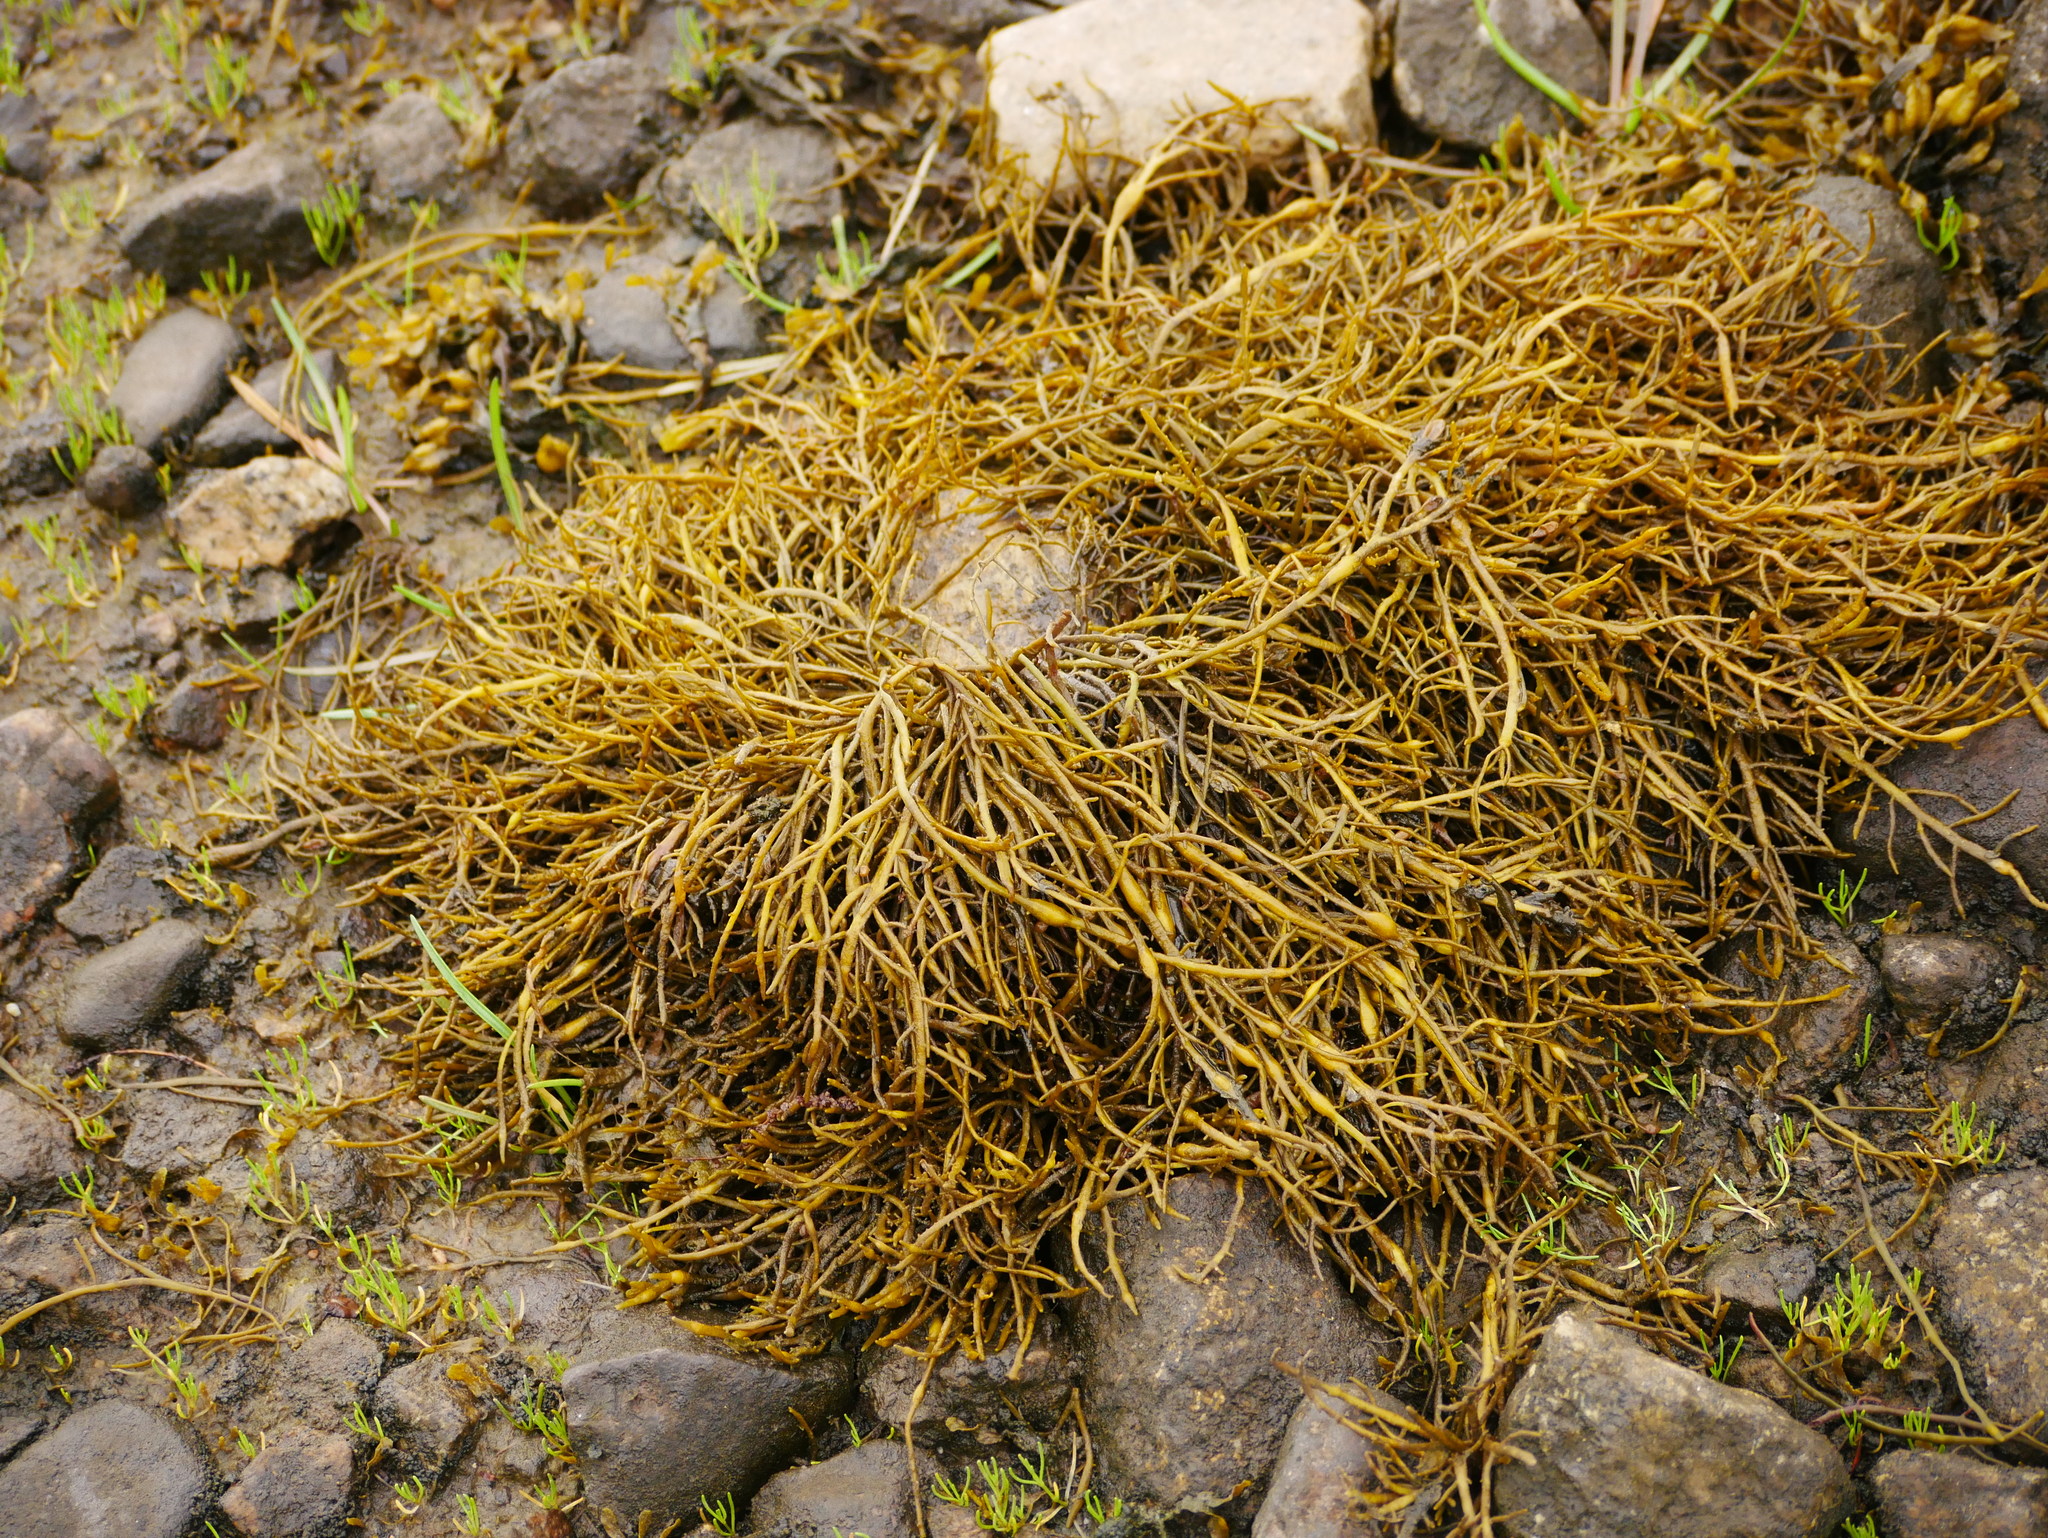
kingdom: Chromista
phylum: Ochrophyta
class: Phaeophyceae
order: Fucales
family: Fucaceae
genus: Ascophyllum
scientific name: Ascophyllum nodosum
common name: Knotted wrack
